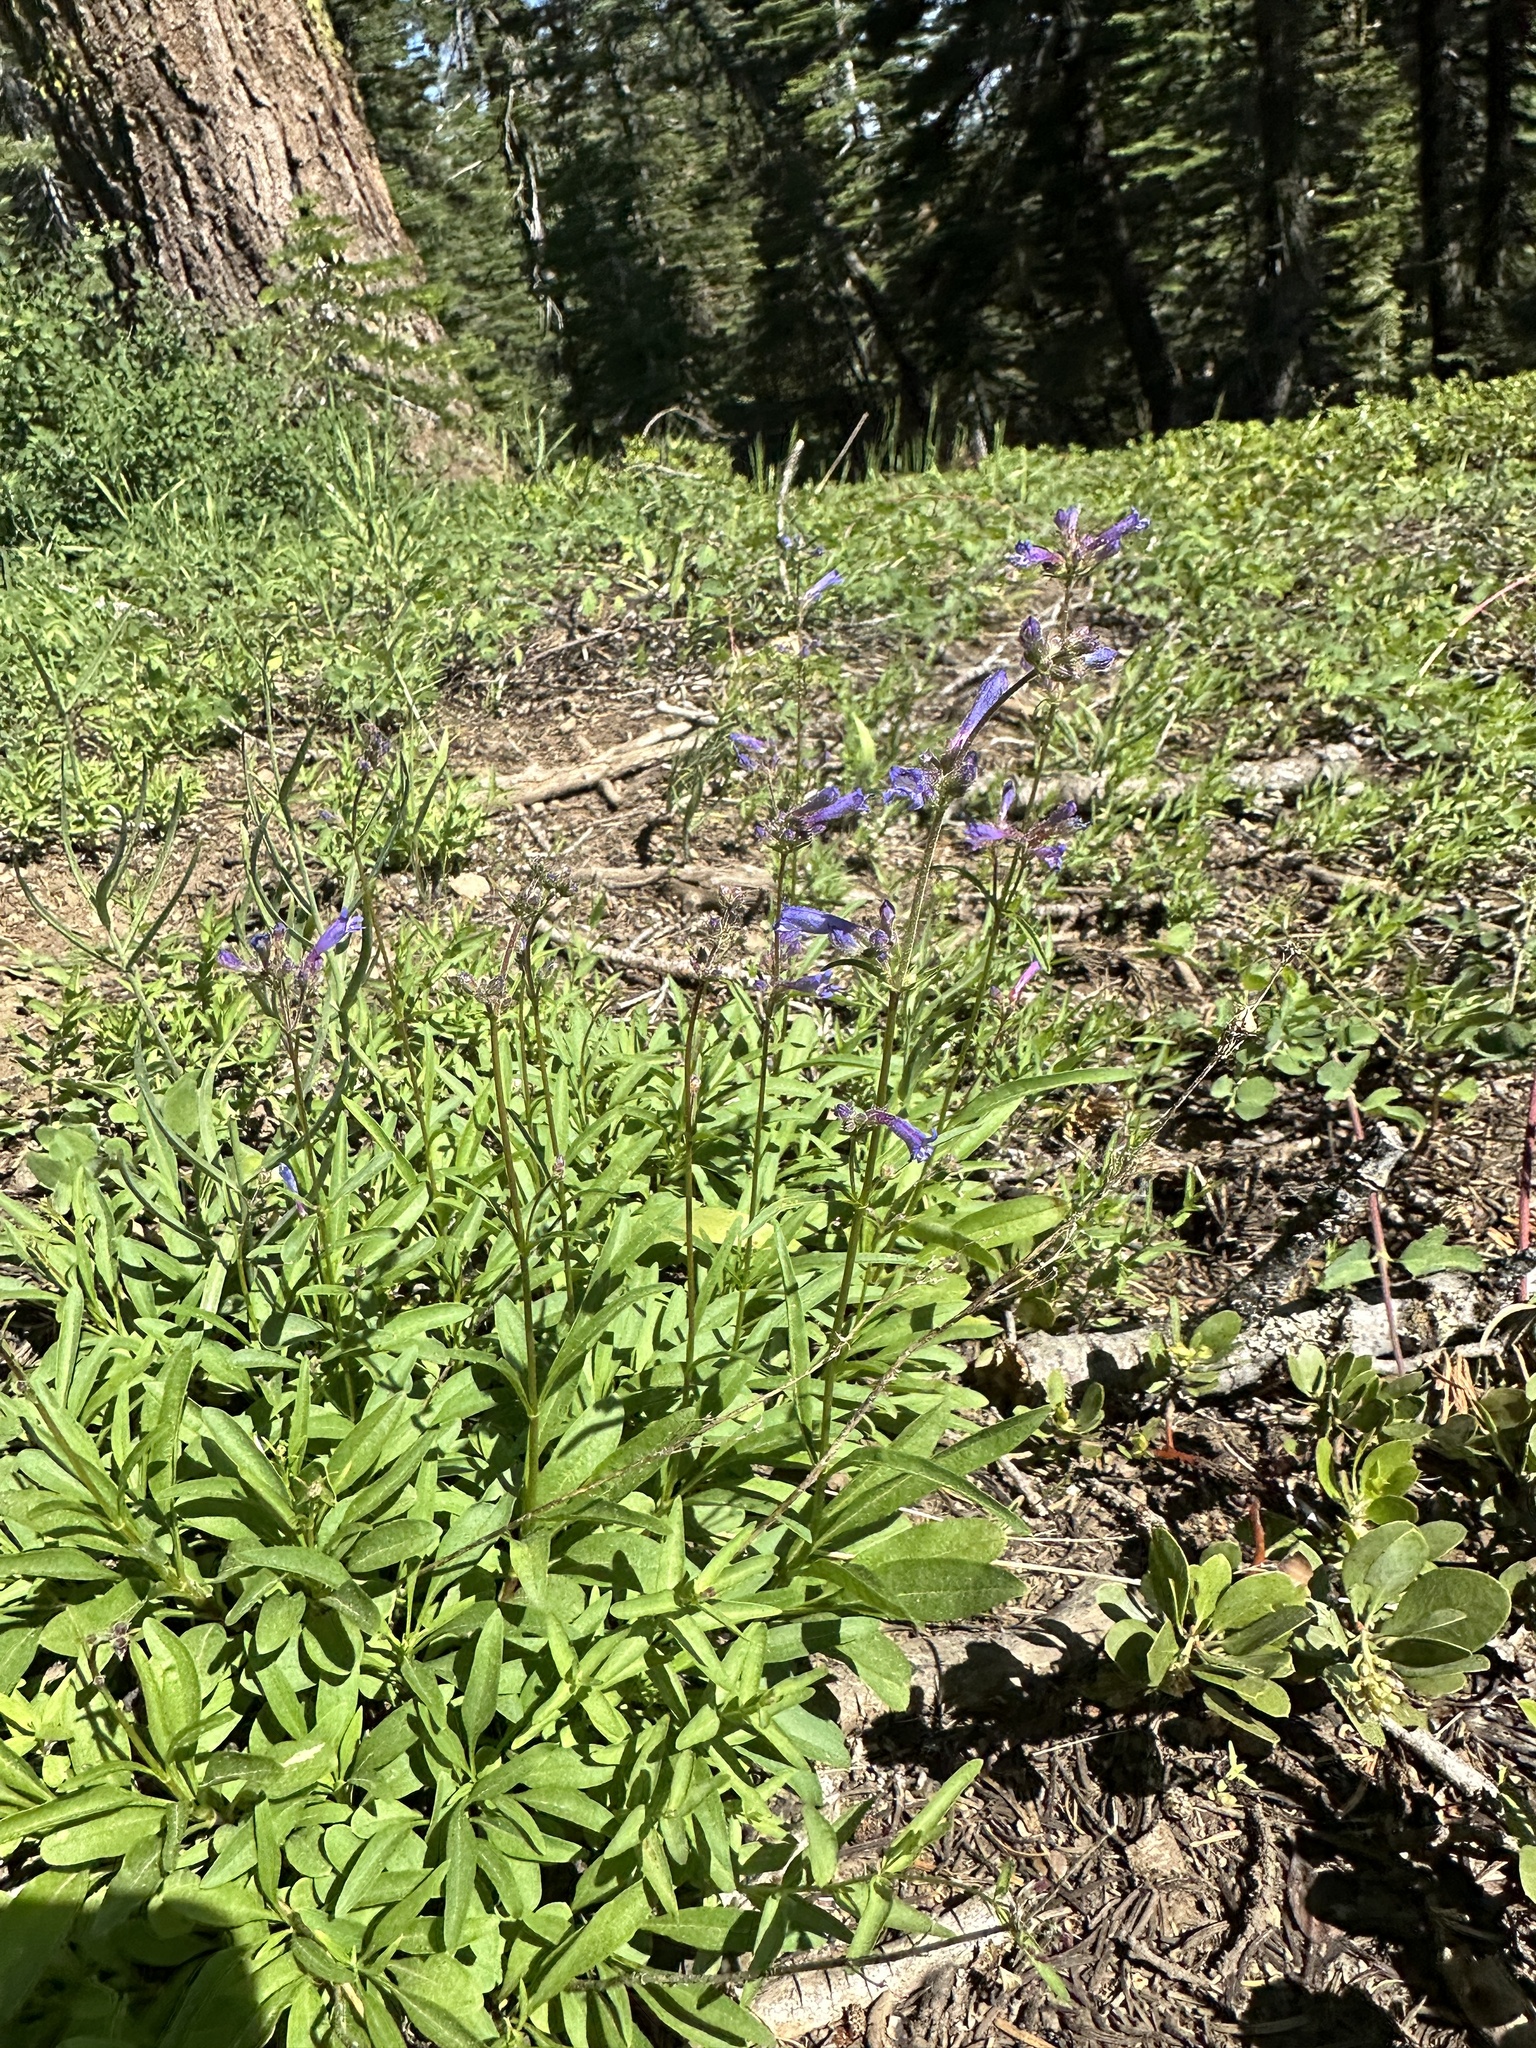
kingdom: Plantae
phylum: Tracheophyta
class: Magnoliopsida
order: Lamiales
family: Plantaginaceae
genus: Penstemon
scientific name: Penstemon gracilentus
